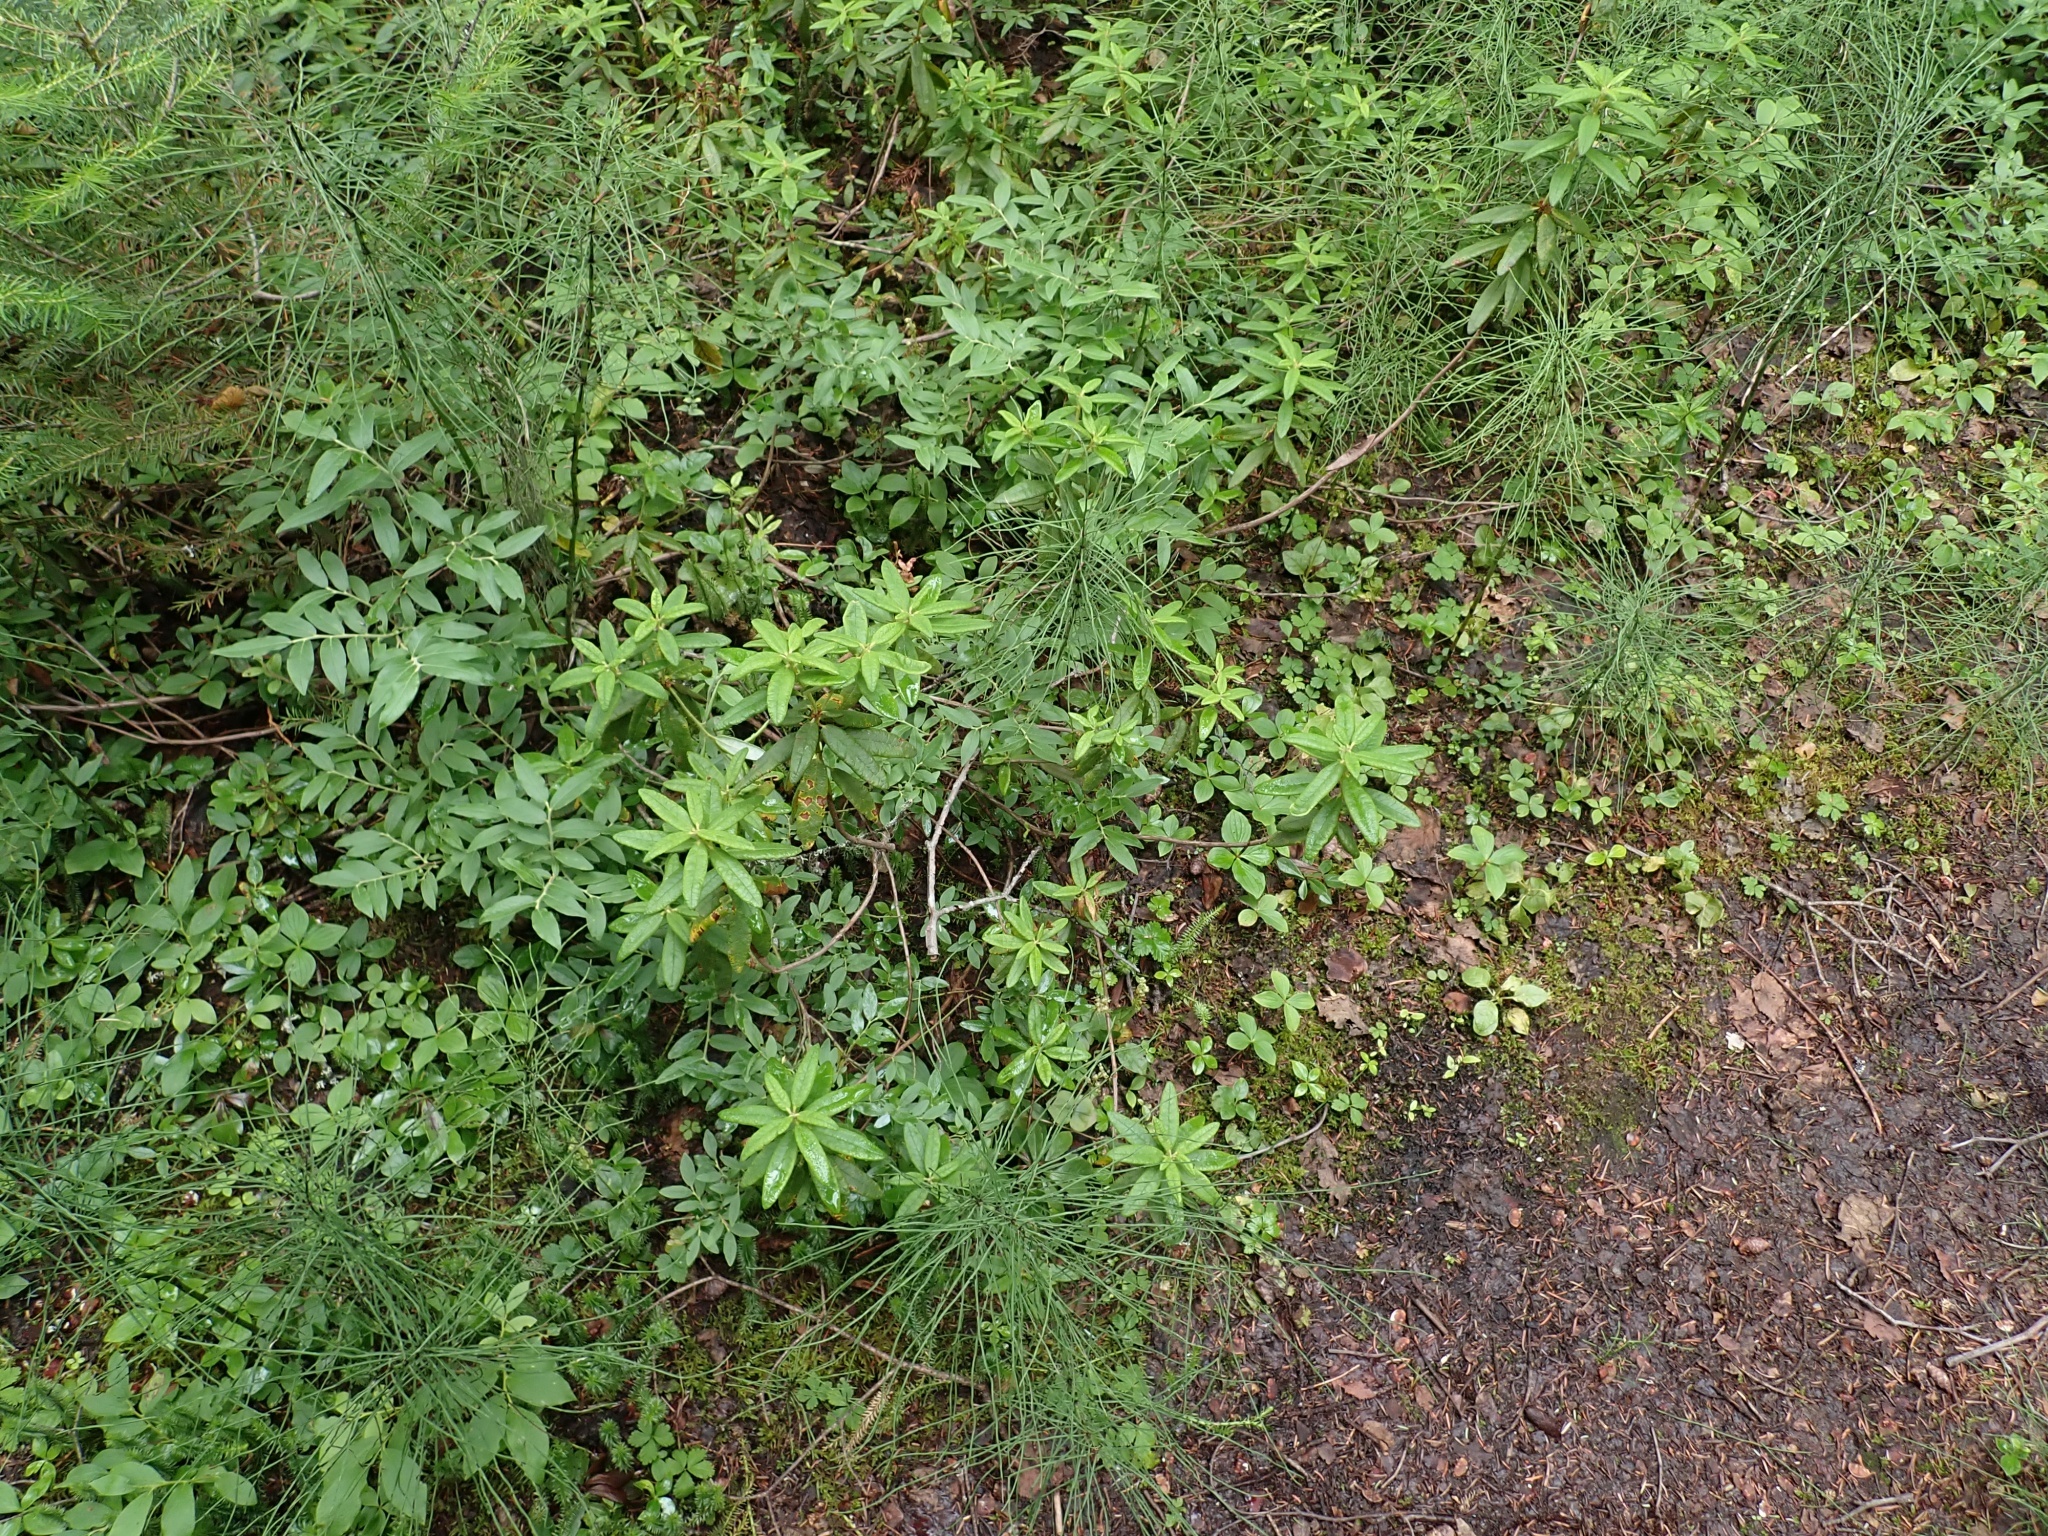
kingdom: Plantae
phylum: Tracheophyta
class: Magnoliopsida
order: Ericales
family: Ericaceae
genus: Rhododendron
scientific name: Rhododendron groenlandicum
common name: Bog labrador tea
